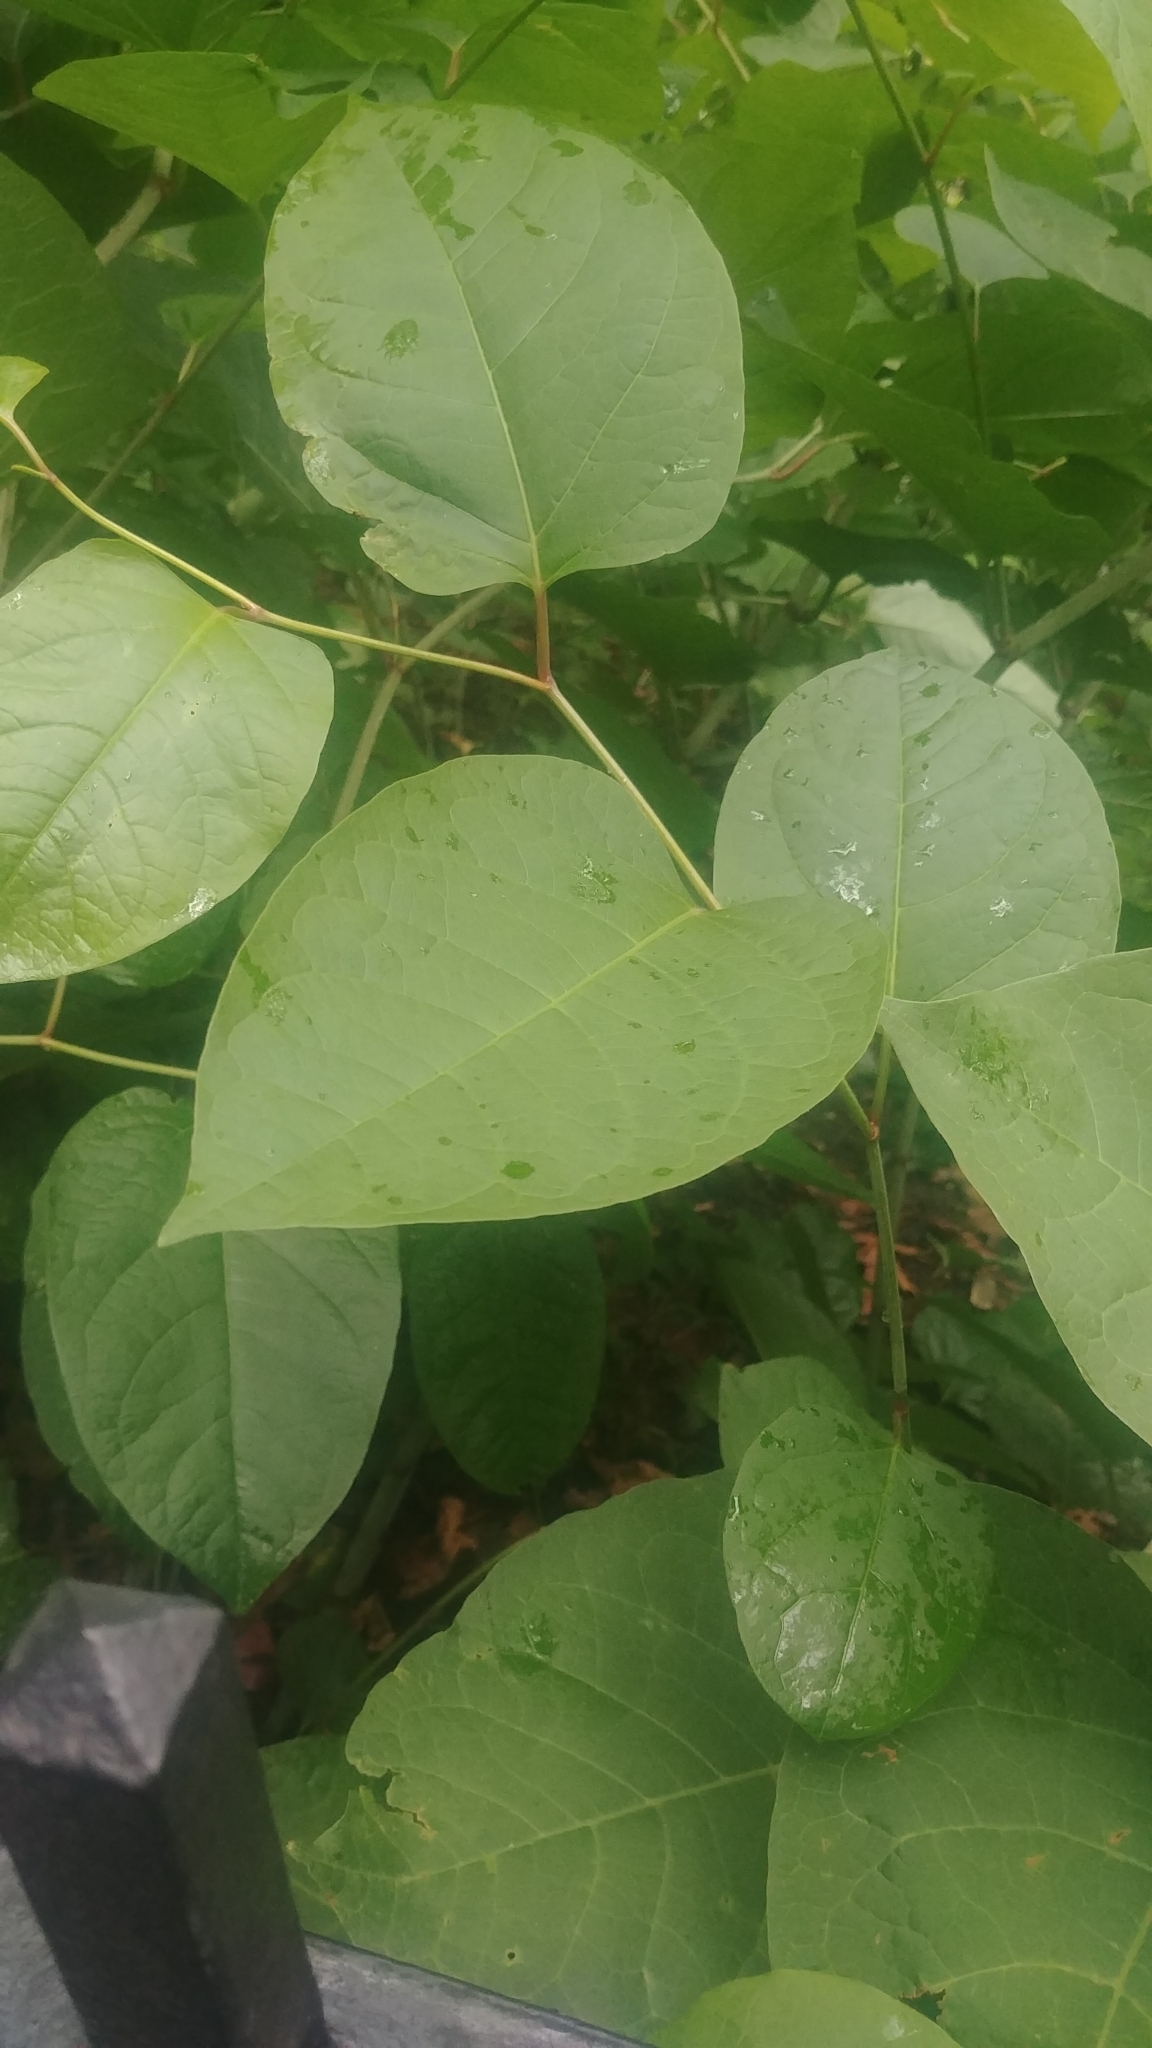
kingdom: Plantae
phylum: Tracheophyta
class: Magnoliopsida
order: Caryophyllales
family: Polygonaceae
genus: Reynoutria
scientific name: Reynoutria japonica
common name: Japanese knotweed
